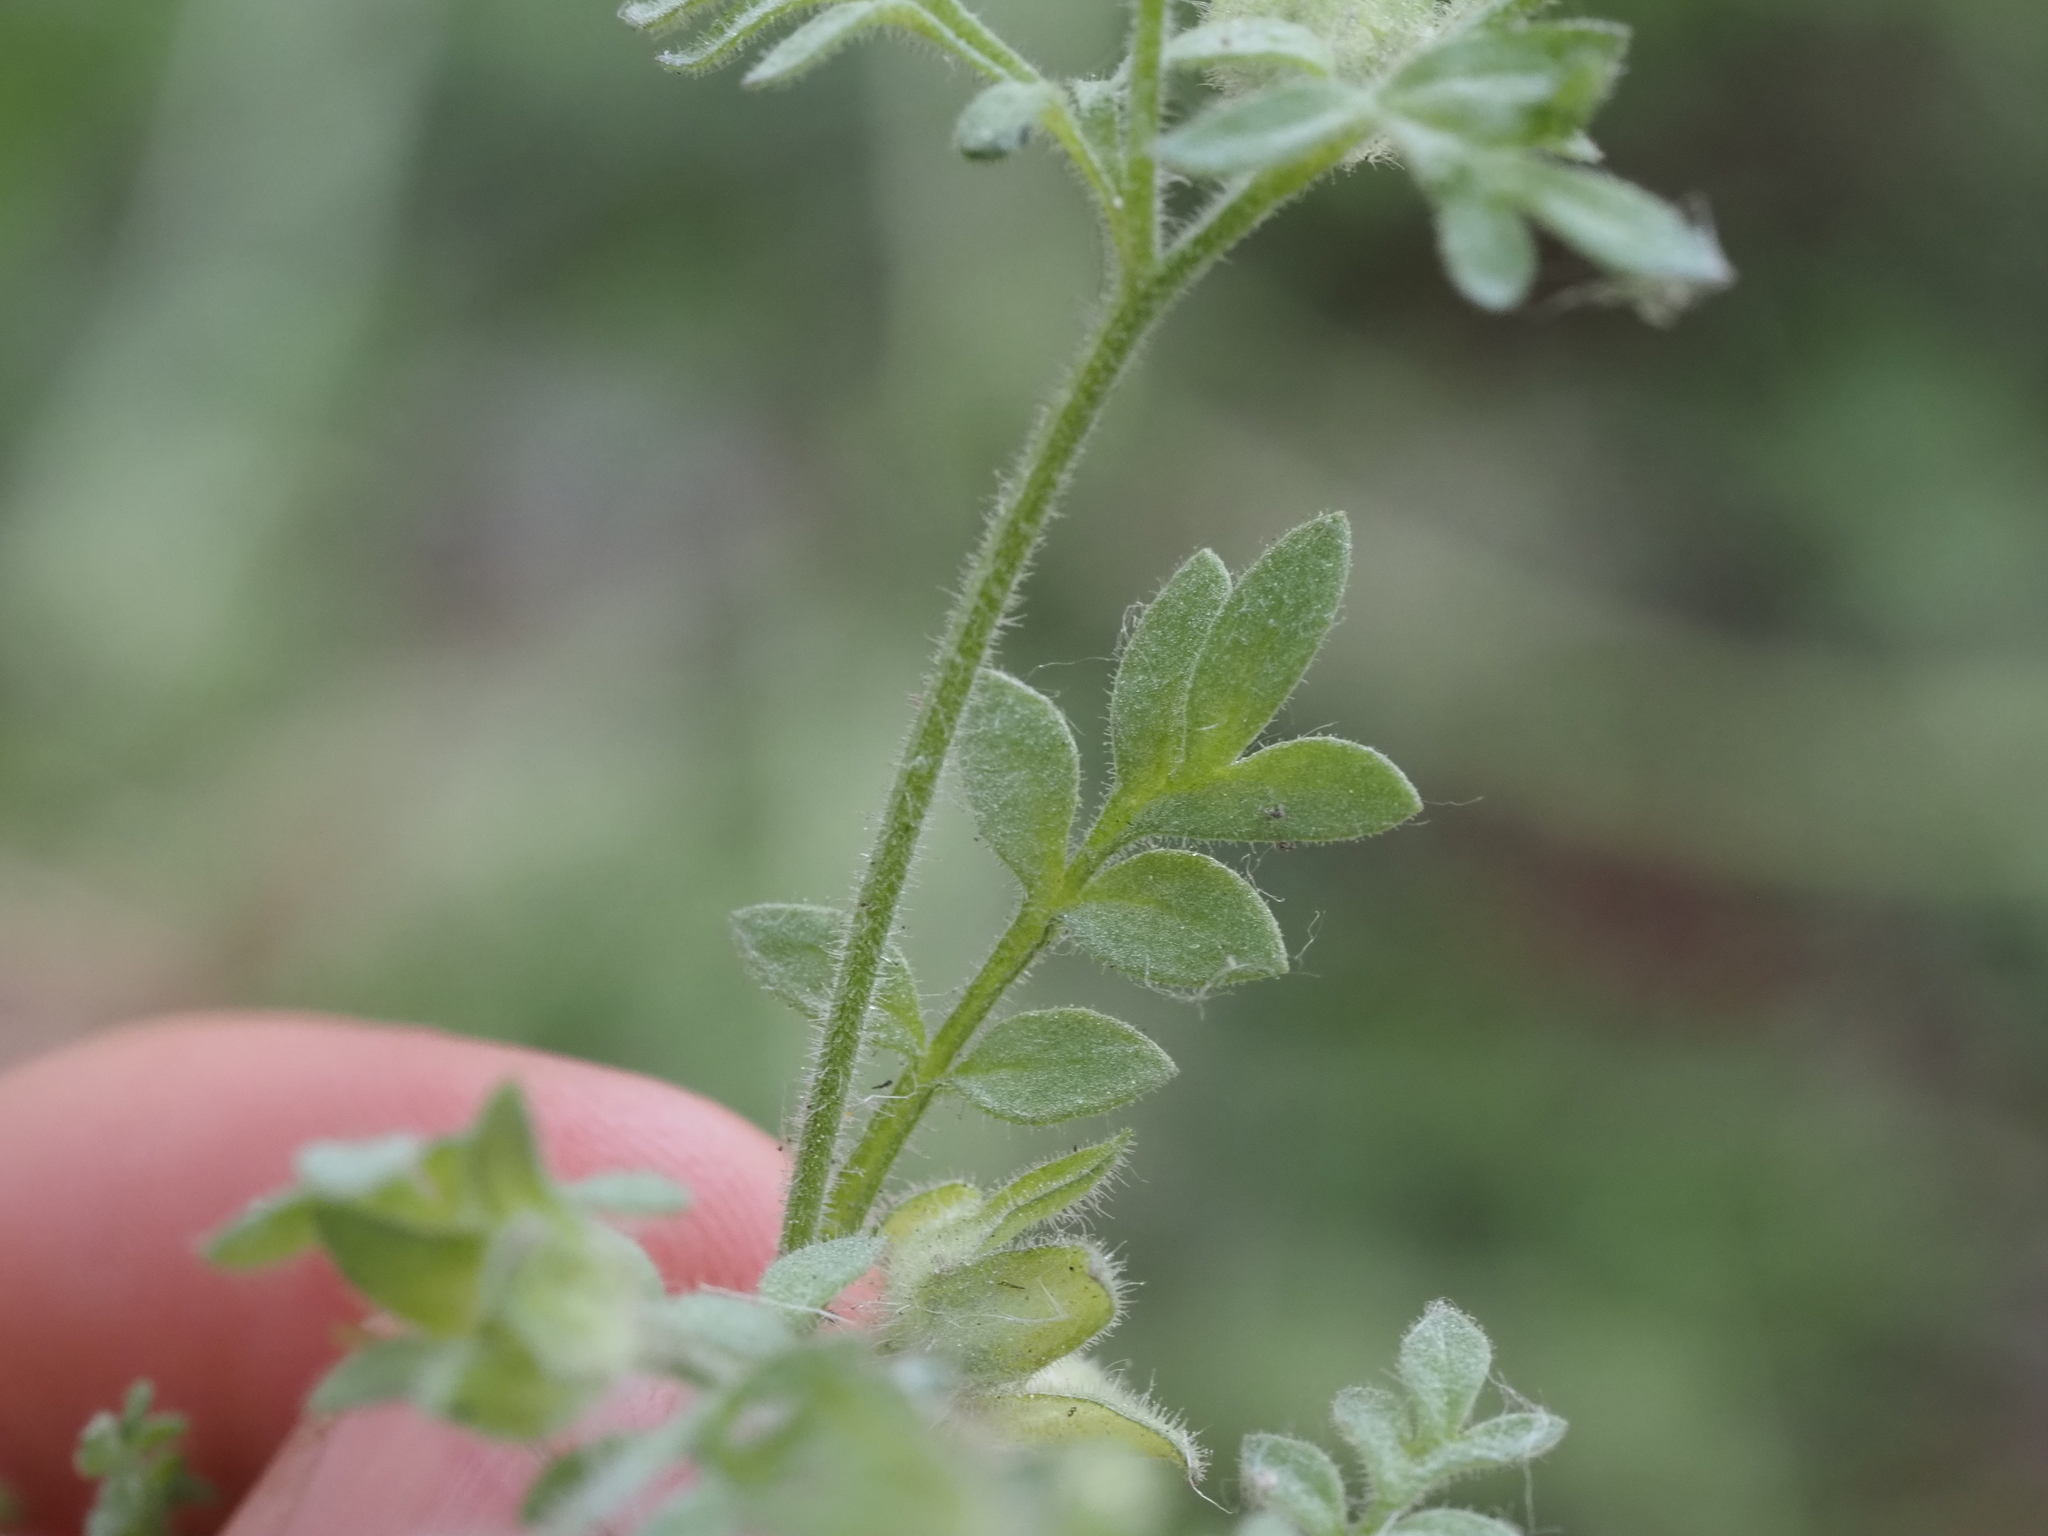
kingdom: Plantae
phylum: Tracheophyta
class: Magnoliopsida
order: Ericales
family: Polemoniaceae
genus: Polemonium
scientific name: Polemonium micranthum
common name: Annual jacob's-ladder
